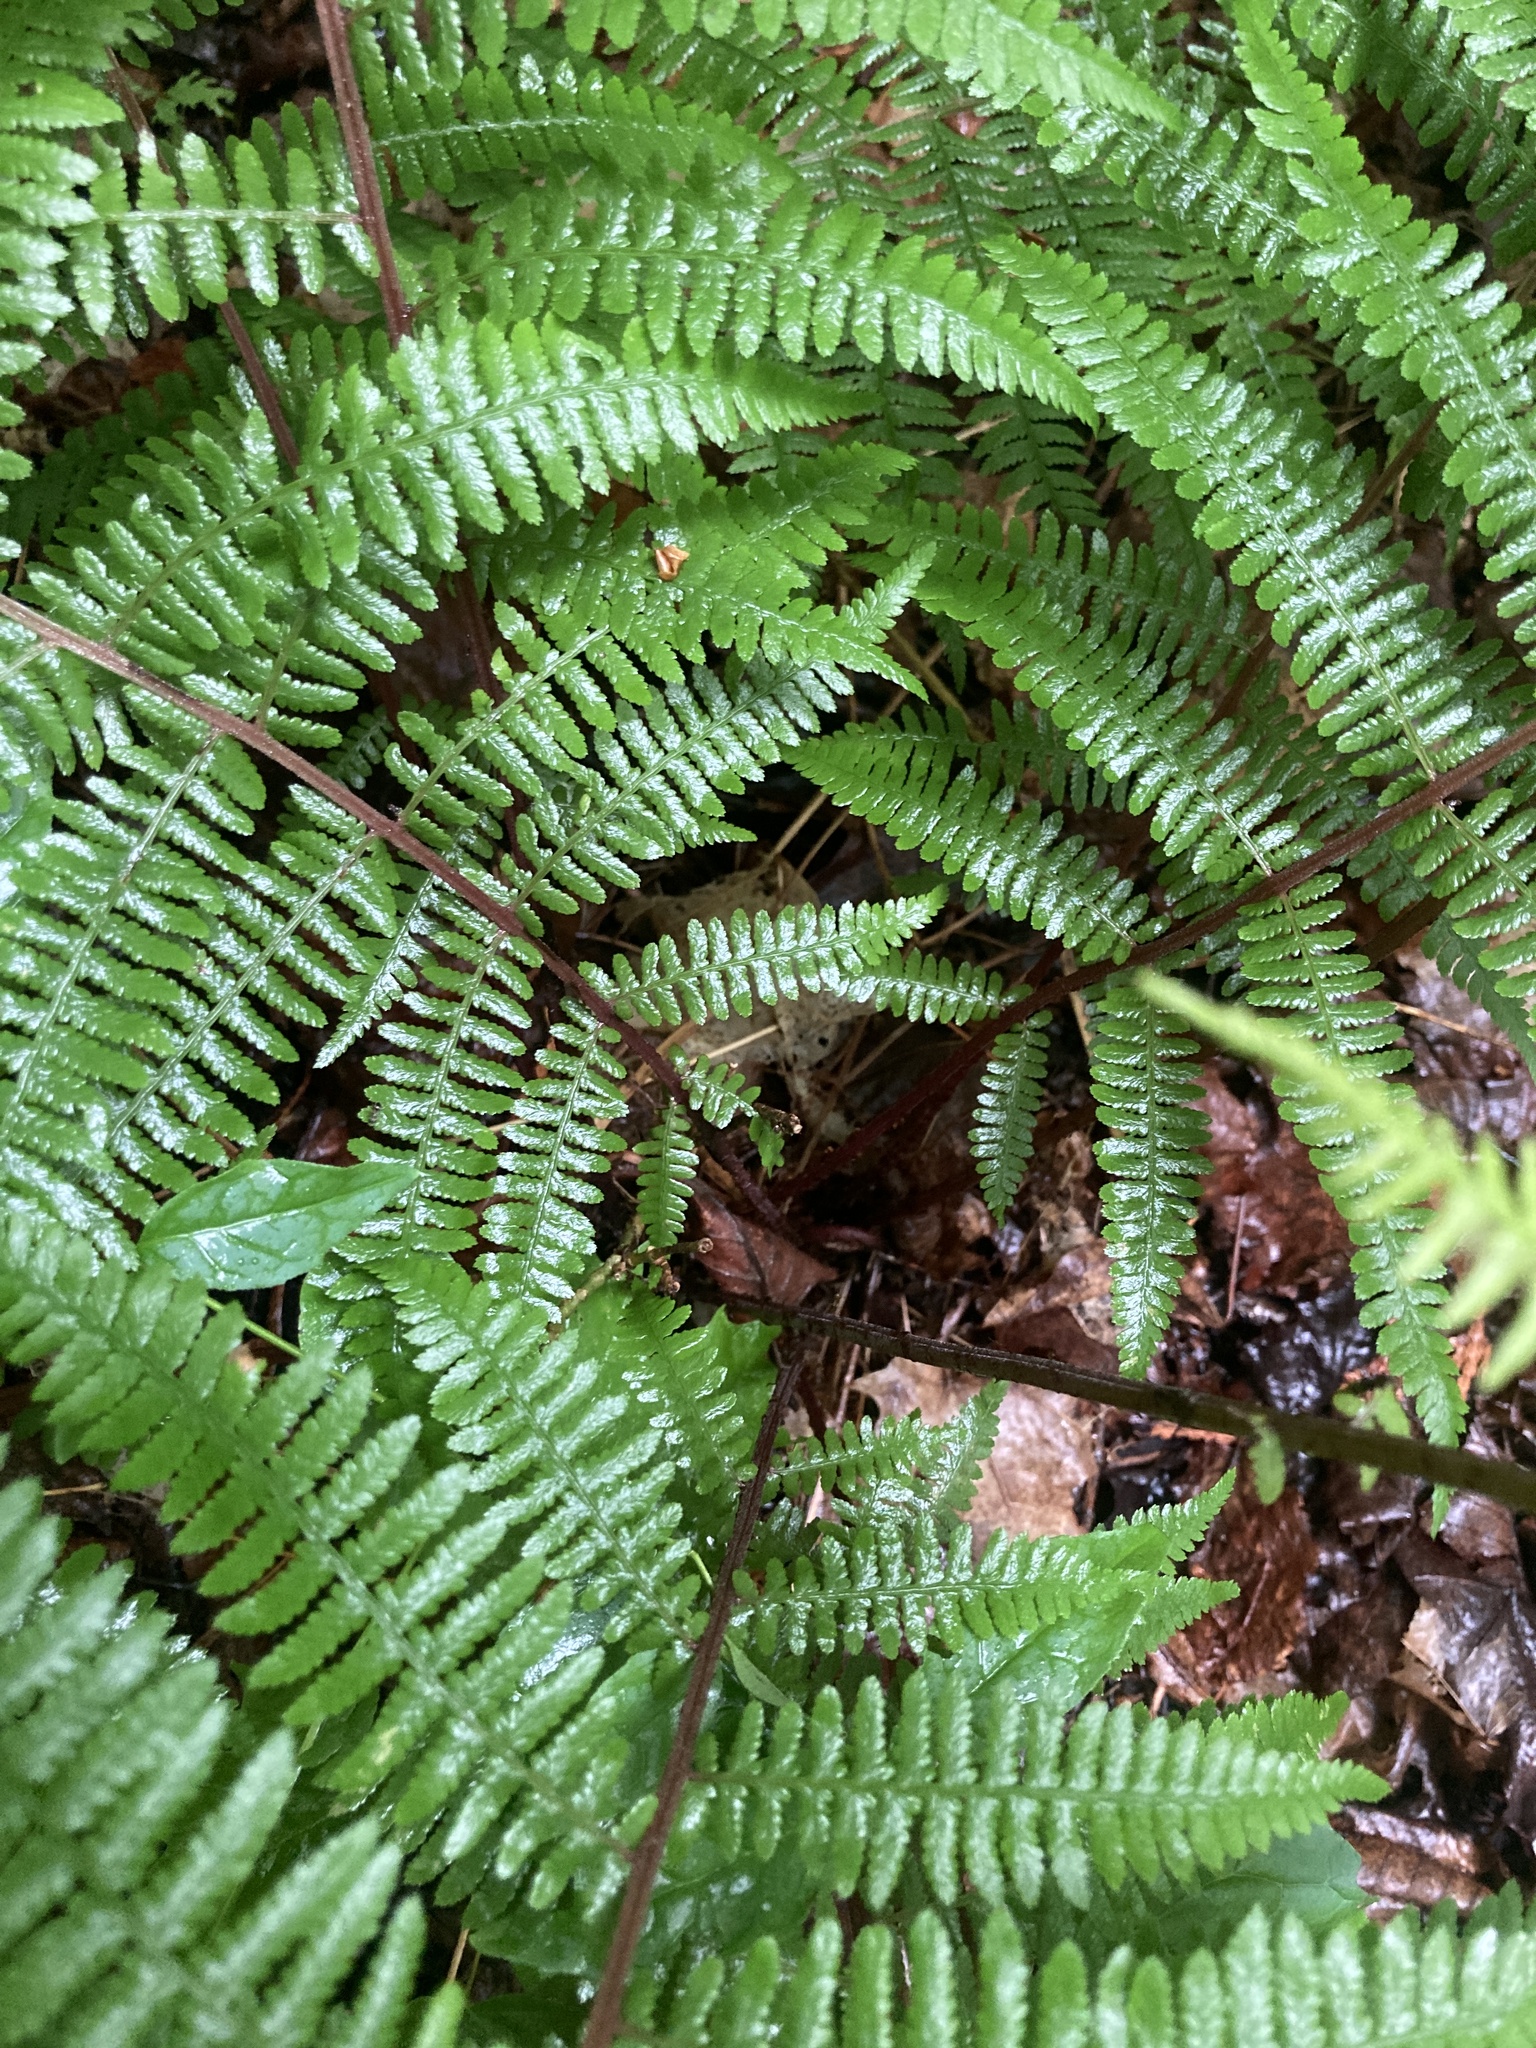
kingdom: Plantae
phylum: Tracheophyta
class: Polypodiopsida
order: Polypodiales
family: Athyriaceae
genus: Athyrium
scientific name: Athyrium angustum
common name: Northern lady fern
